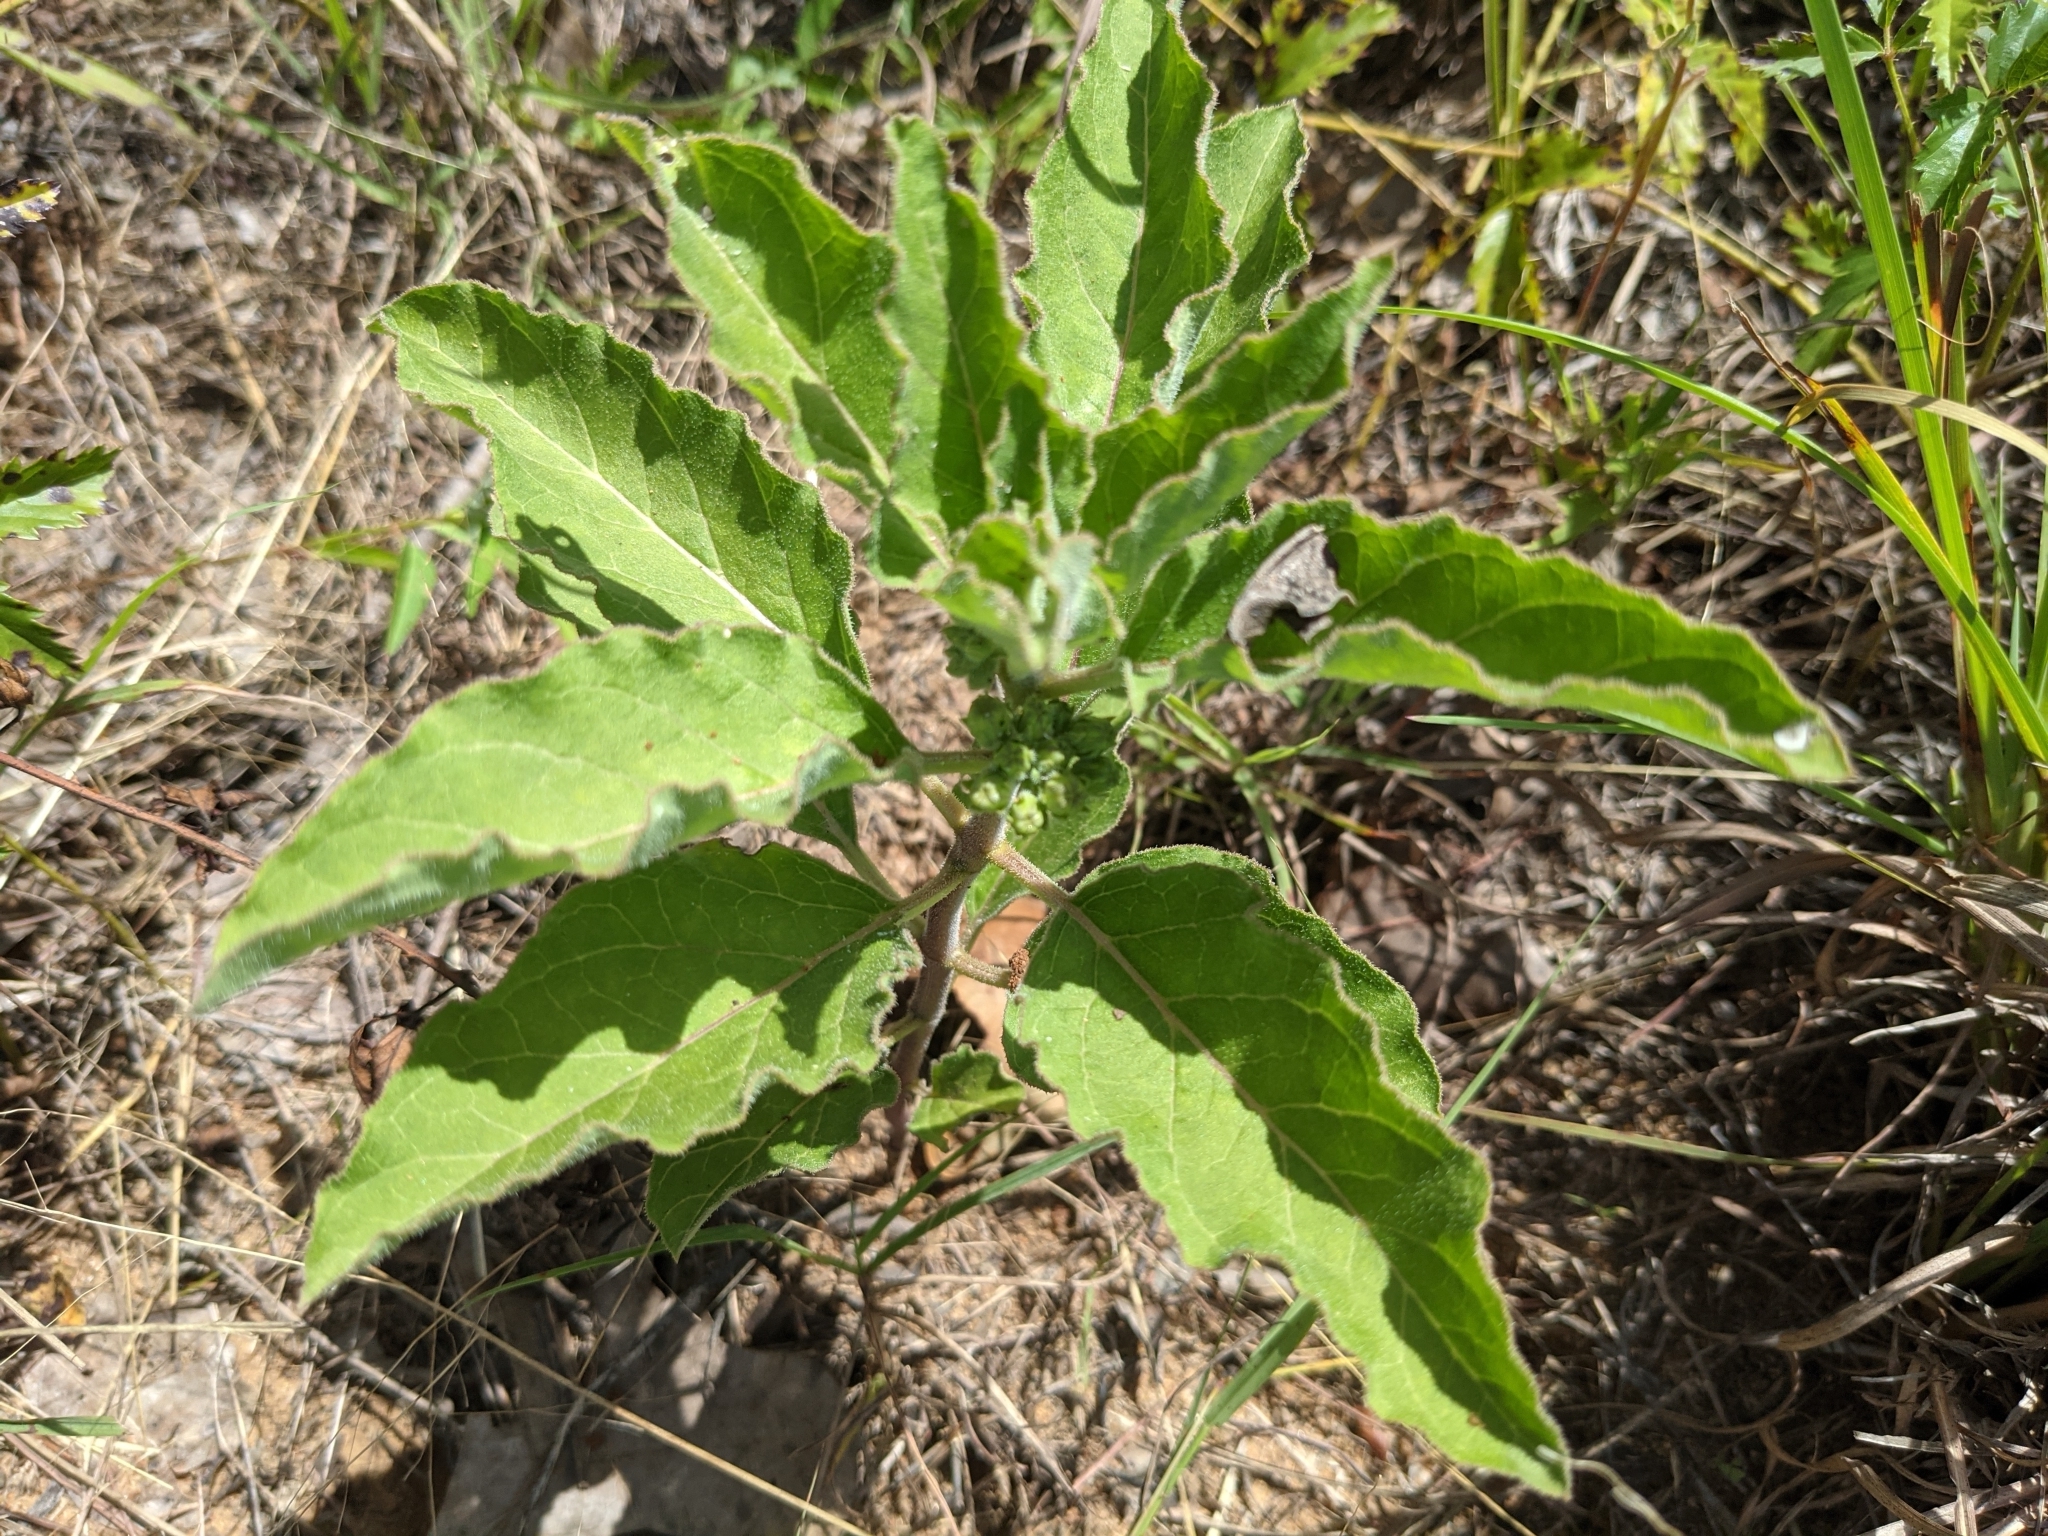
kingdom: Plantae
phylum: Tracheophyta
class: Magnoliopsida
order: Gentianales
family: Apocynaceae
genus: Asclepias
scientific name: Asclepias oenotheroides
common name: Zizotes milkweed
